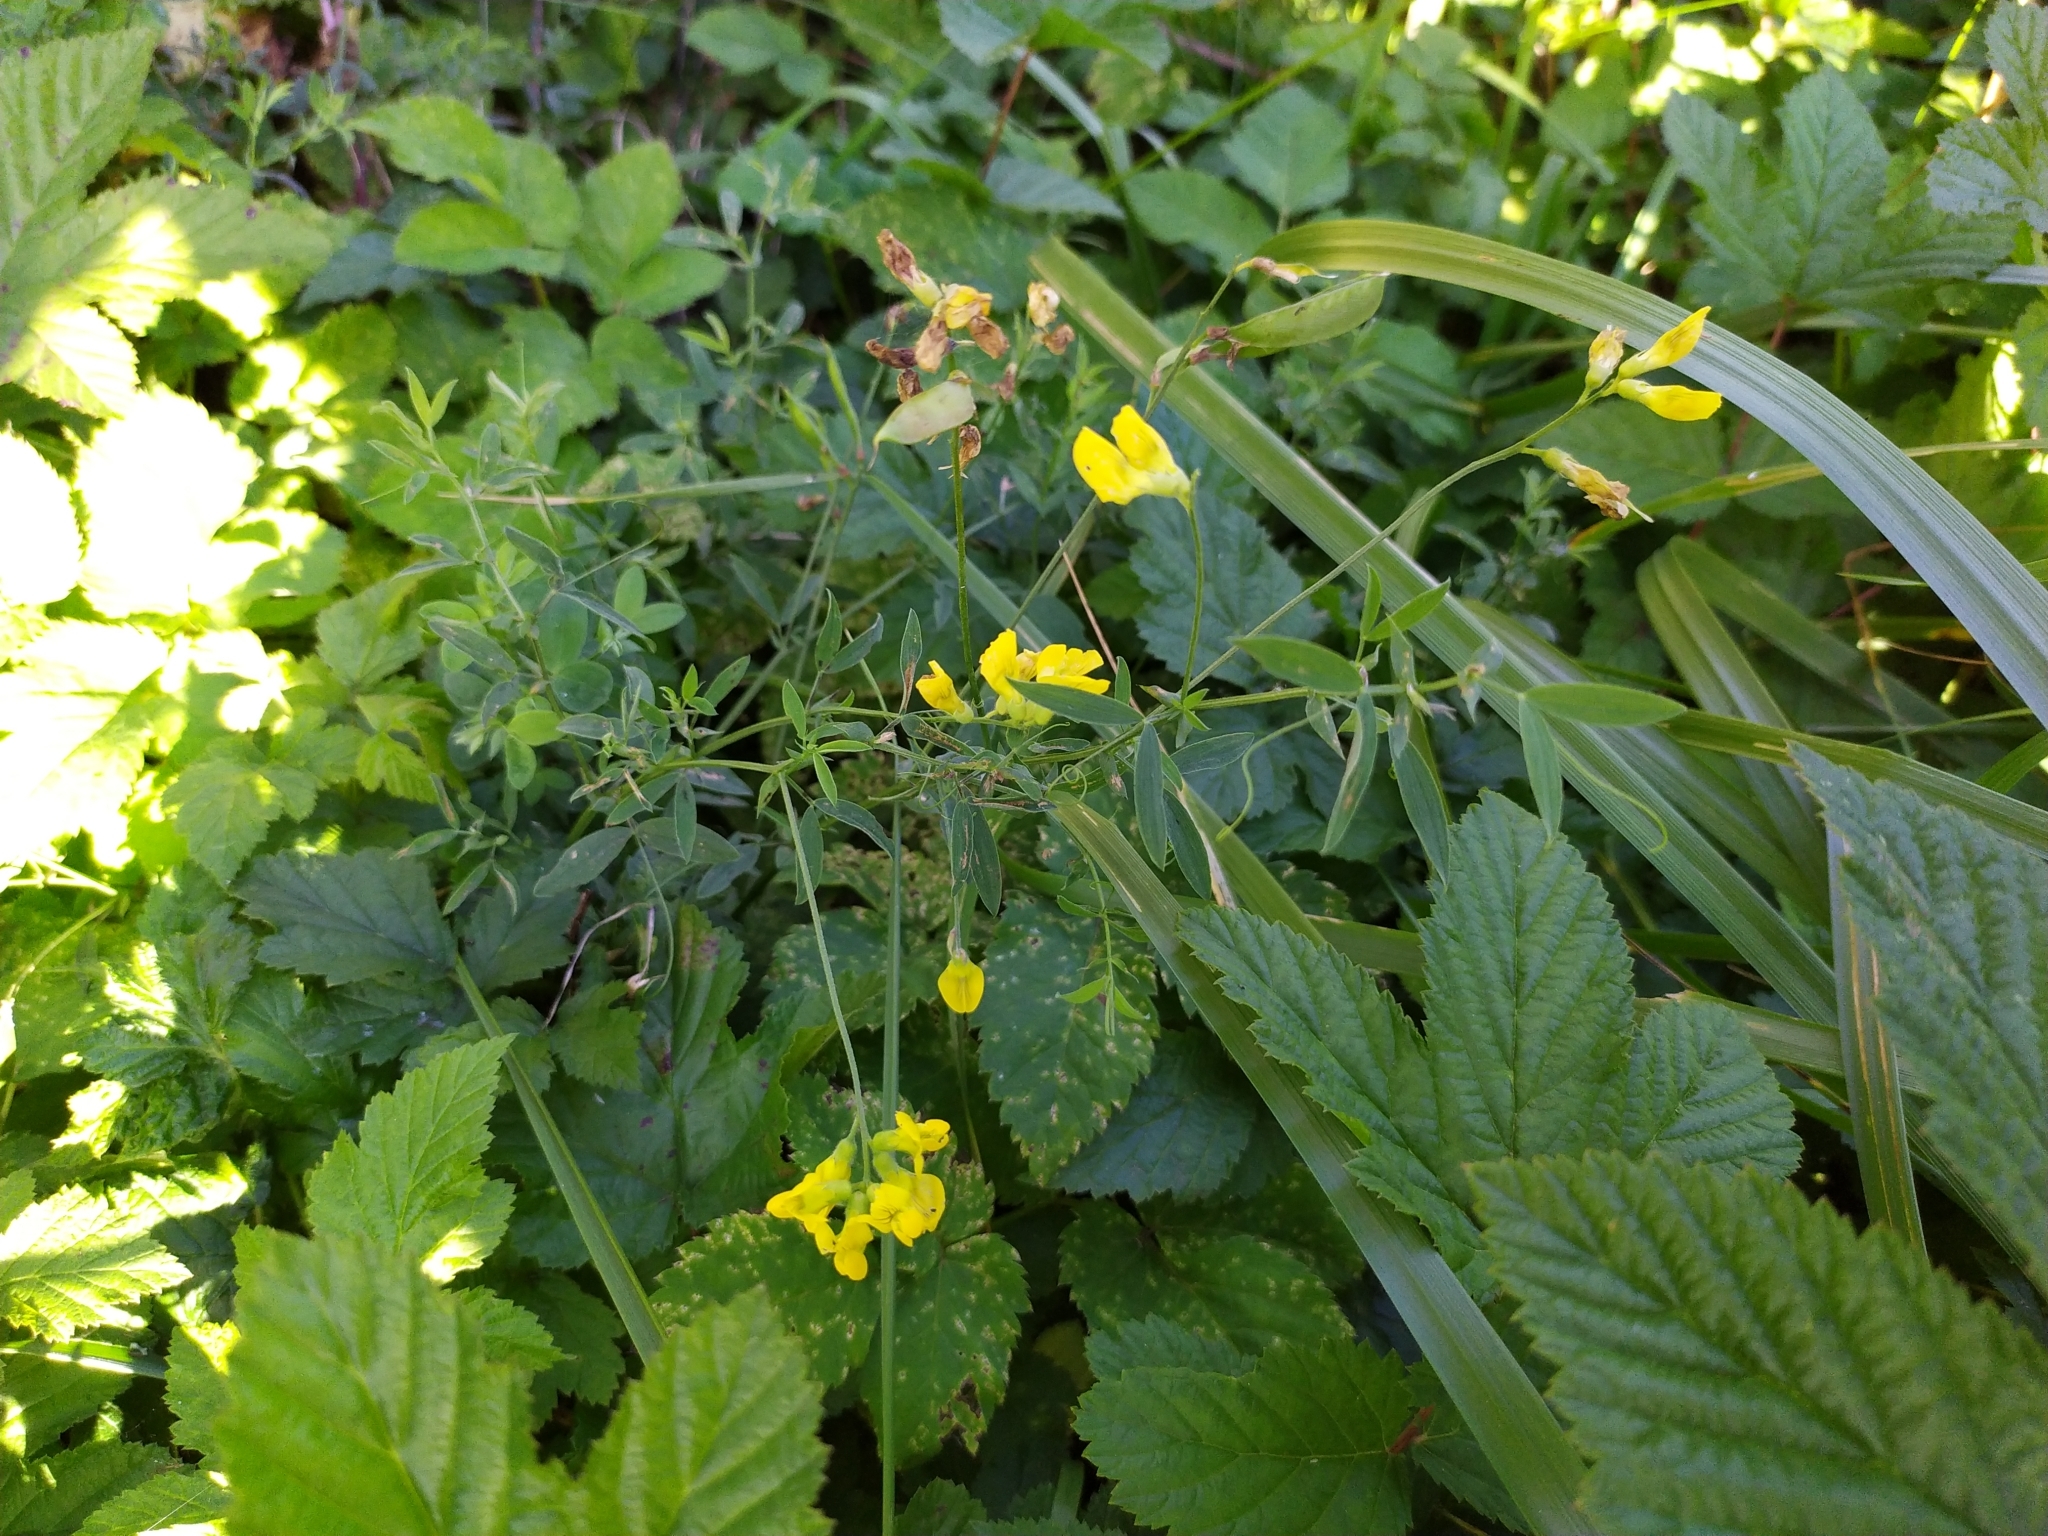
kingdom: Plantae
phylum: Tracheophyta
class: Magnoliopsida
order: Fabales
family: Fabaceae
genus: Lathyrus
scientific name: Lathyrus pratensis
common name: Meadow vetchling
